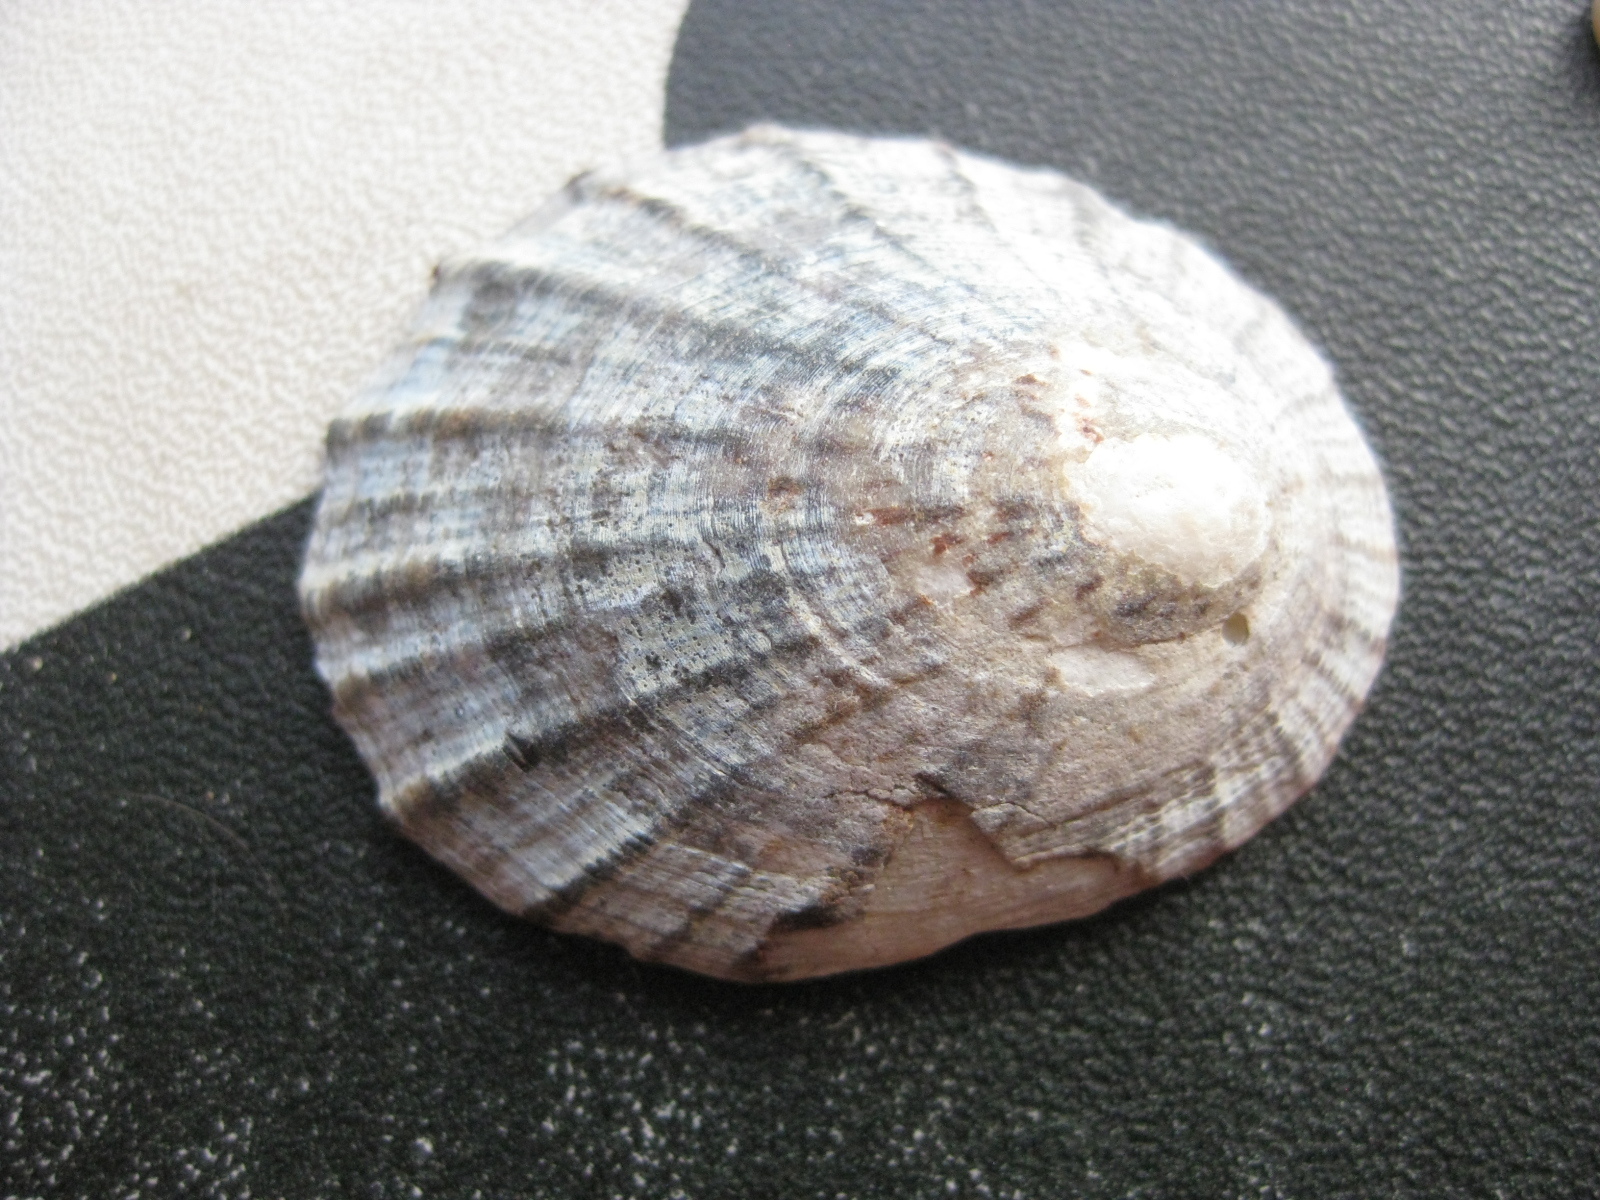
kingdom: Animalia
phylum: Mollusca
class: Gastropoda
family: Nacellidae
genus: Cellana
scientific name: Cellana radians
